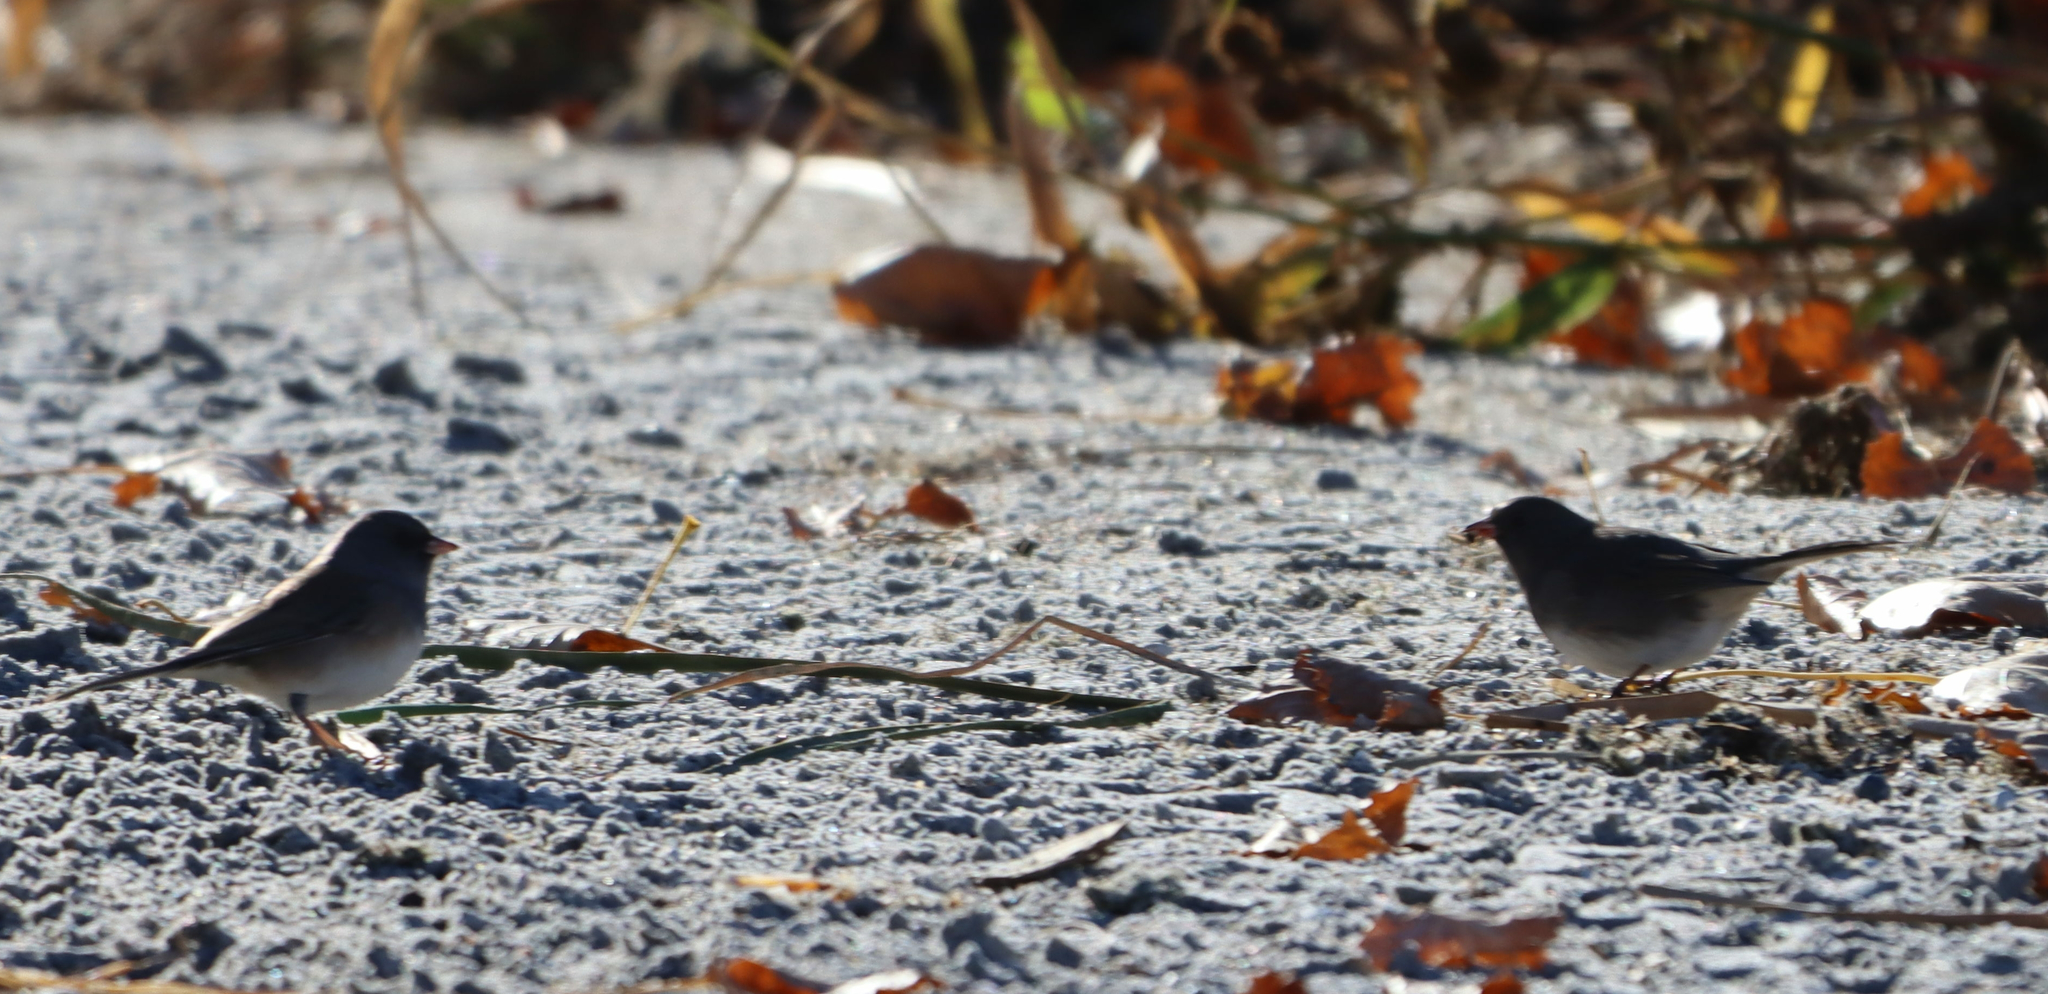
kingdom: Animalia
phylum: Chordata
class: Aves
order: Passeriformes
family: Passerellidae
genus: Junco
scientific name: Junco hyemalis
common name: Dark-eyed junco
